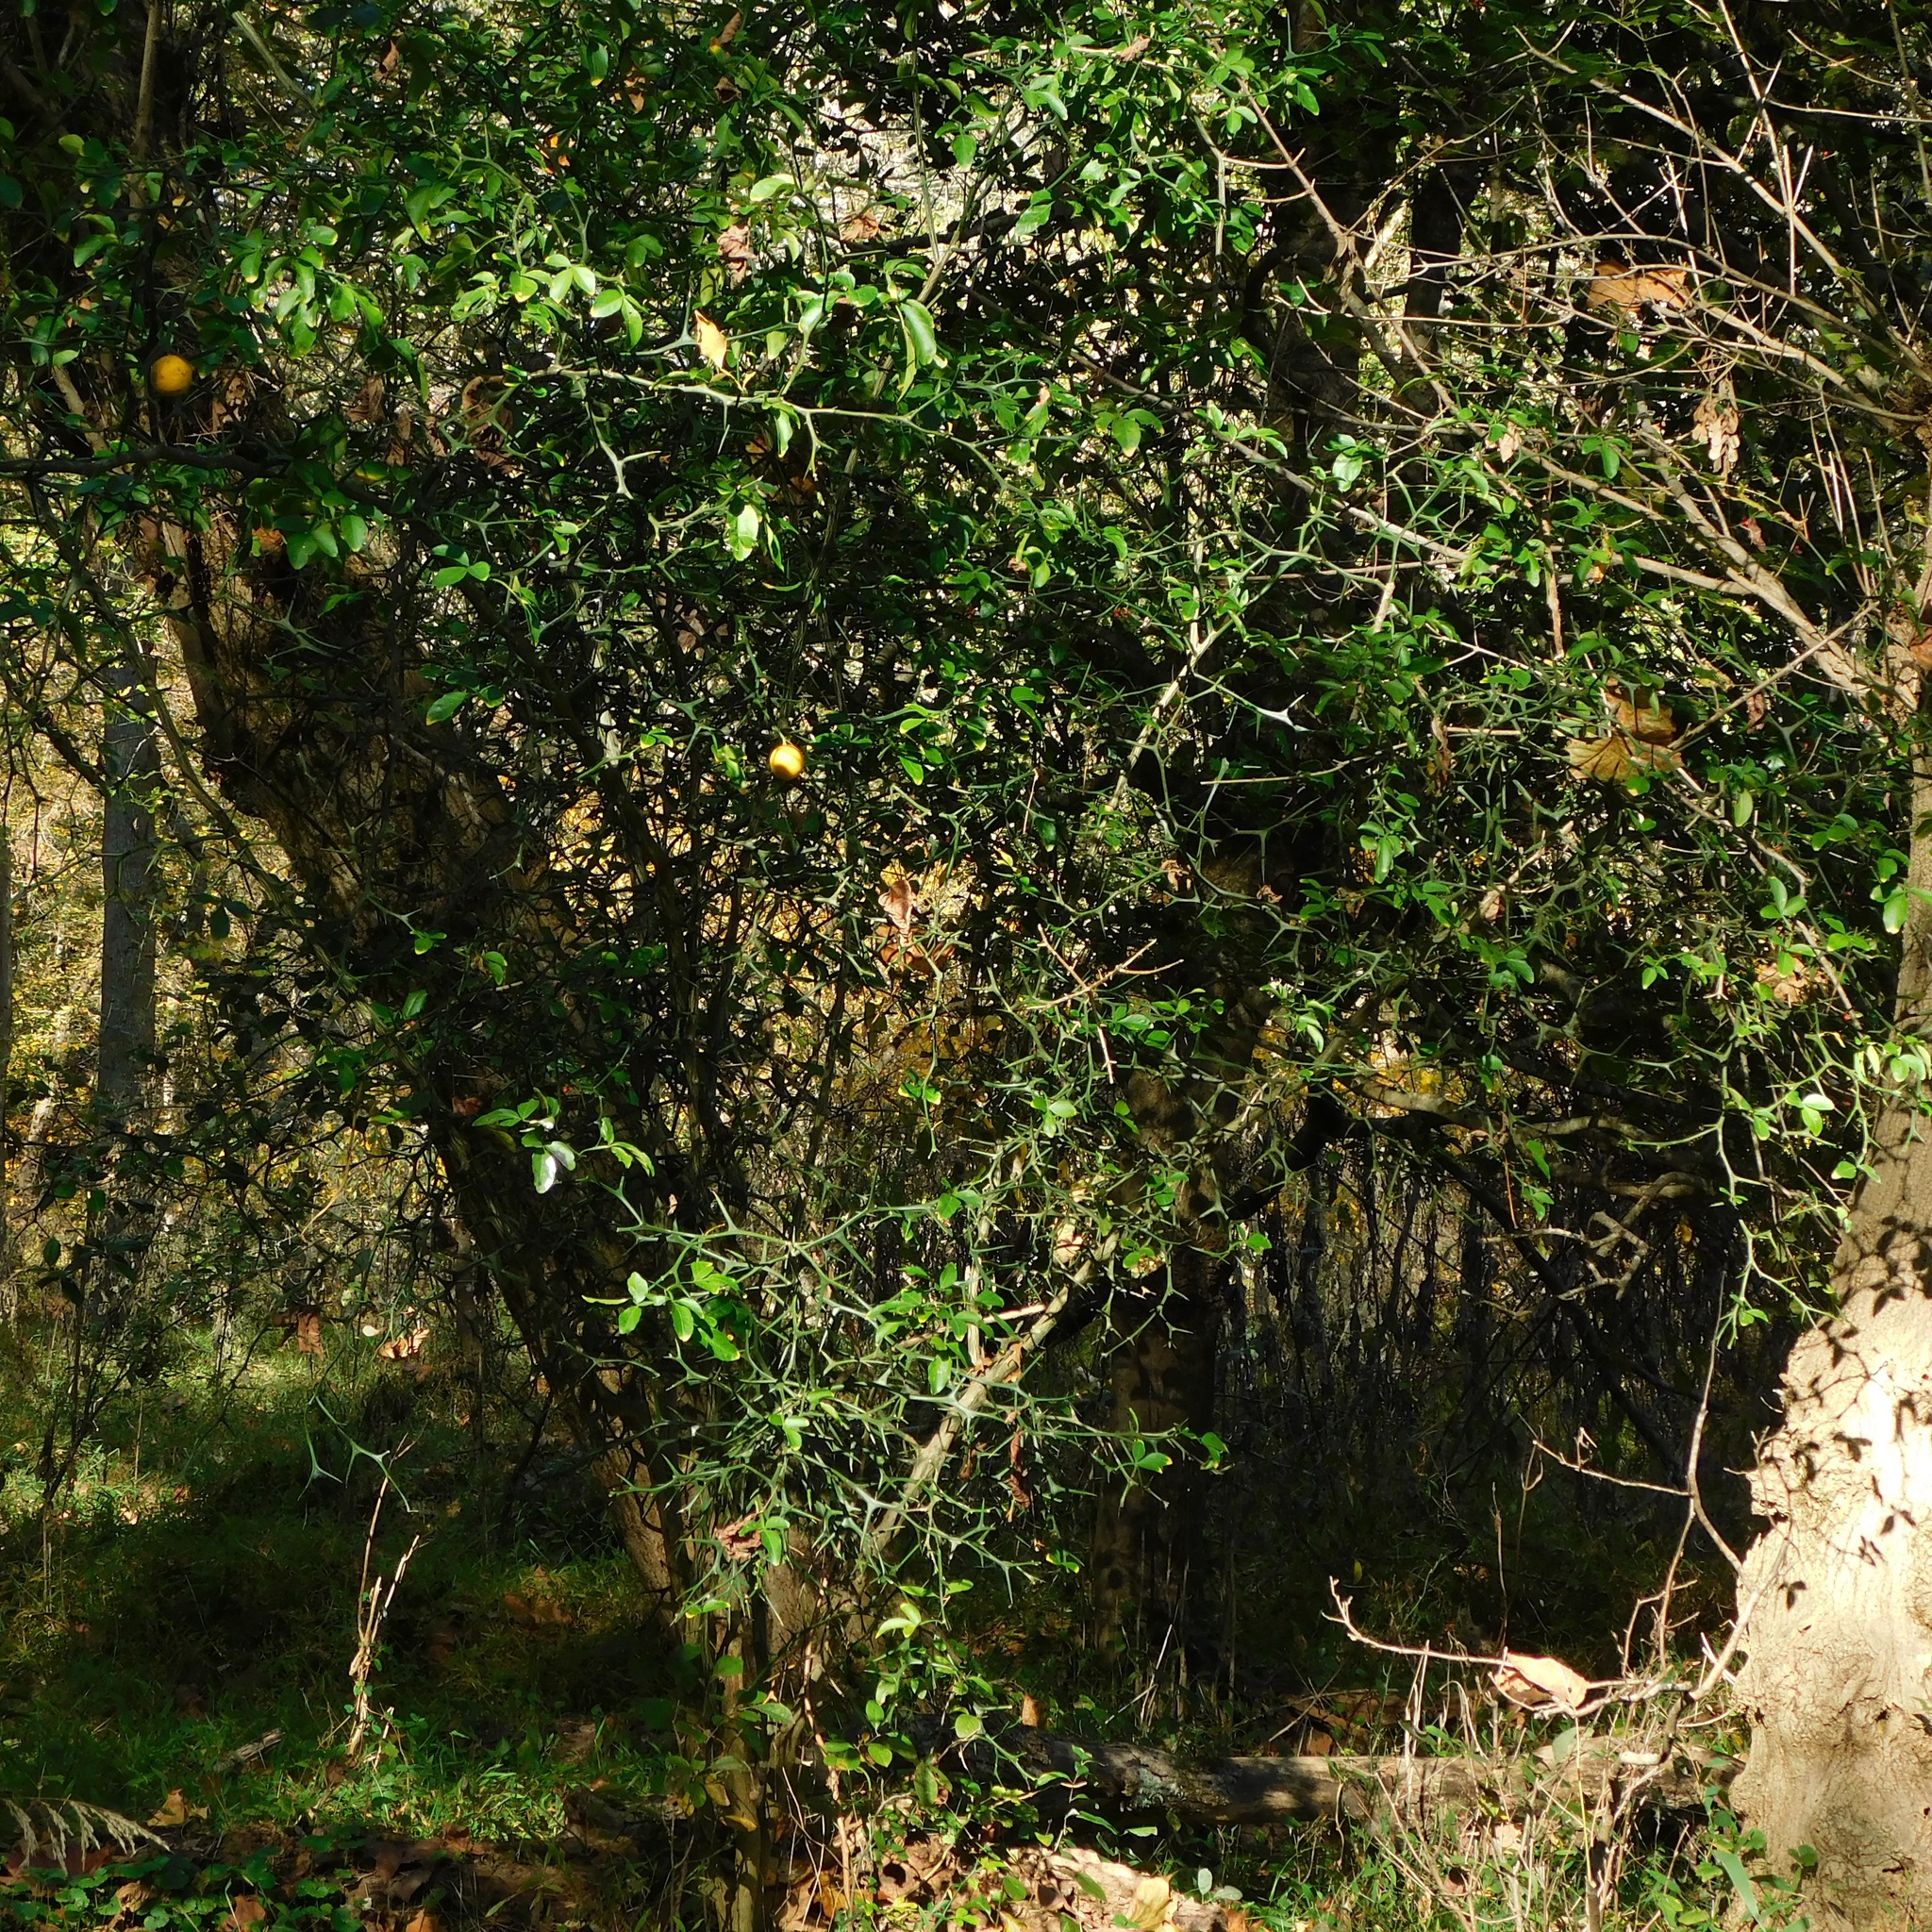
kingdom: Plantae
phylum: Tracheophyta
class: Magnoliopsida
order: Sapindales
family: Rutaceae
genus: Citrus
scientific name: Citrus trifoliata
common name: Japanese bitter-orange
